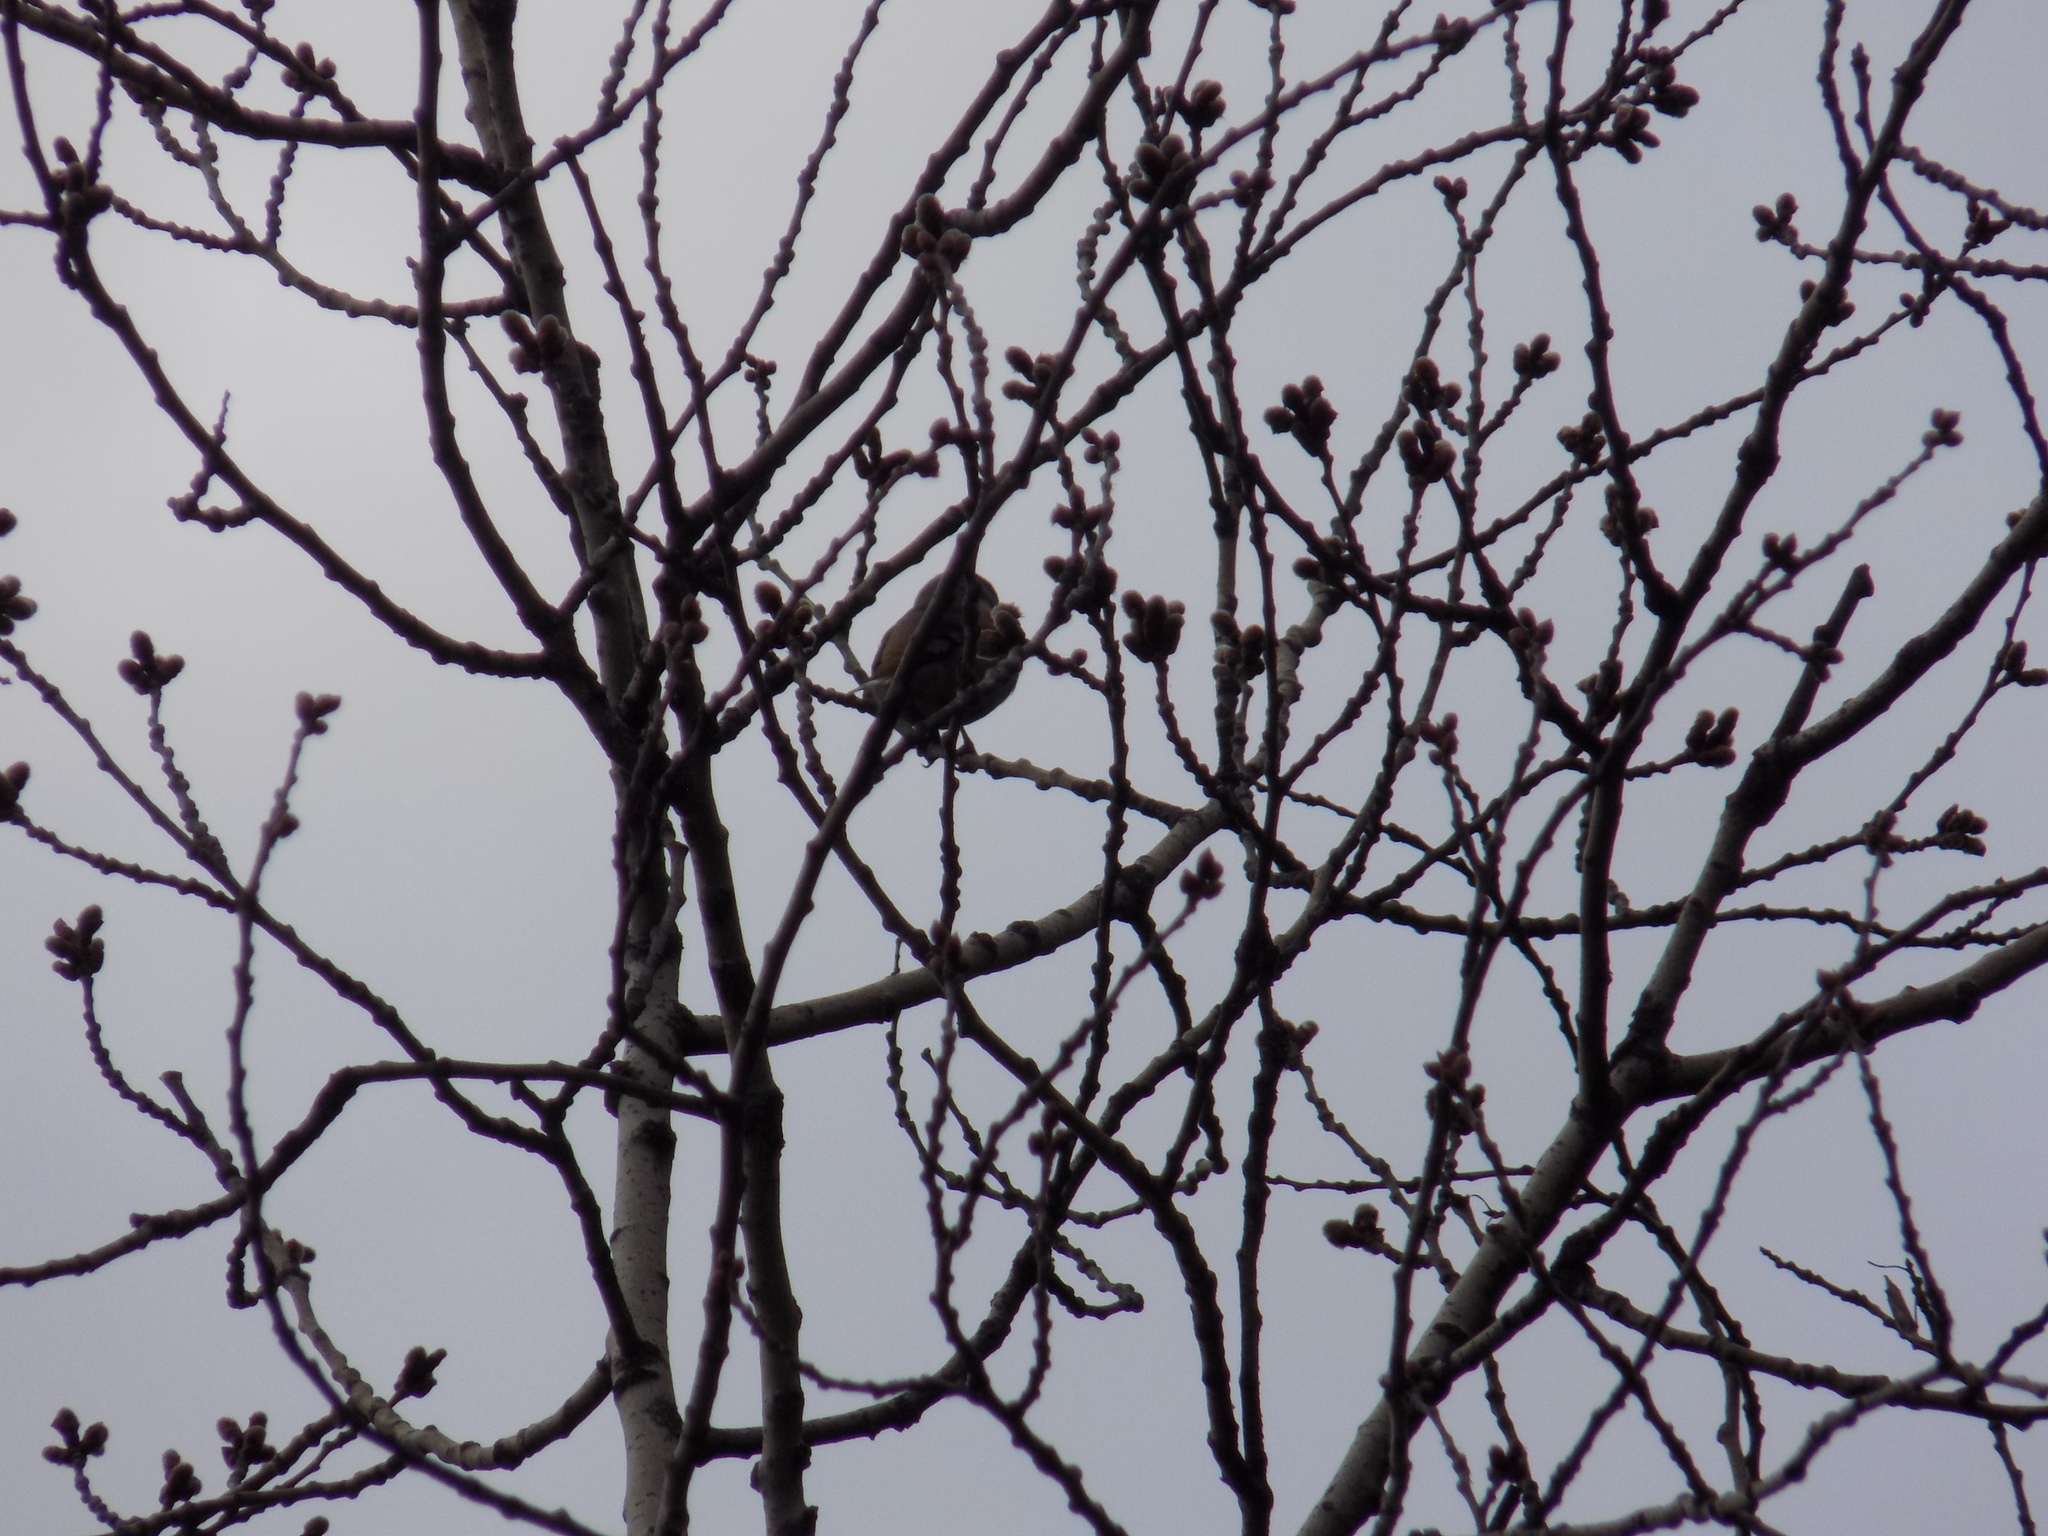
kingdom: Animalia
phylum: Chordata
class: Aves
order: Passeriformes
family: Fringillidae
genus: Coccothraustes
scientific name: Coccothraustes coccothraustes
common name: Hawfinch
